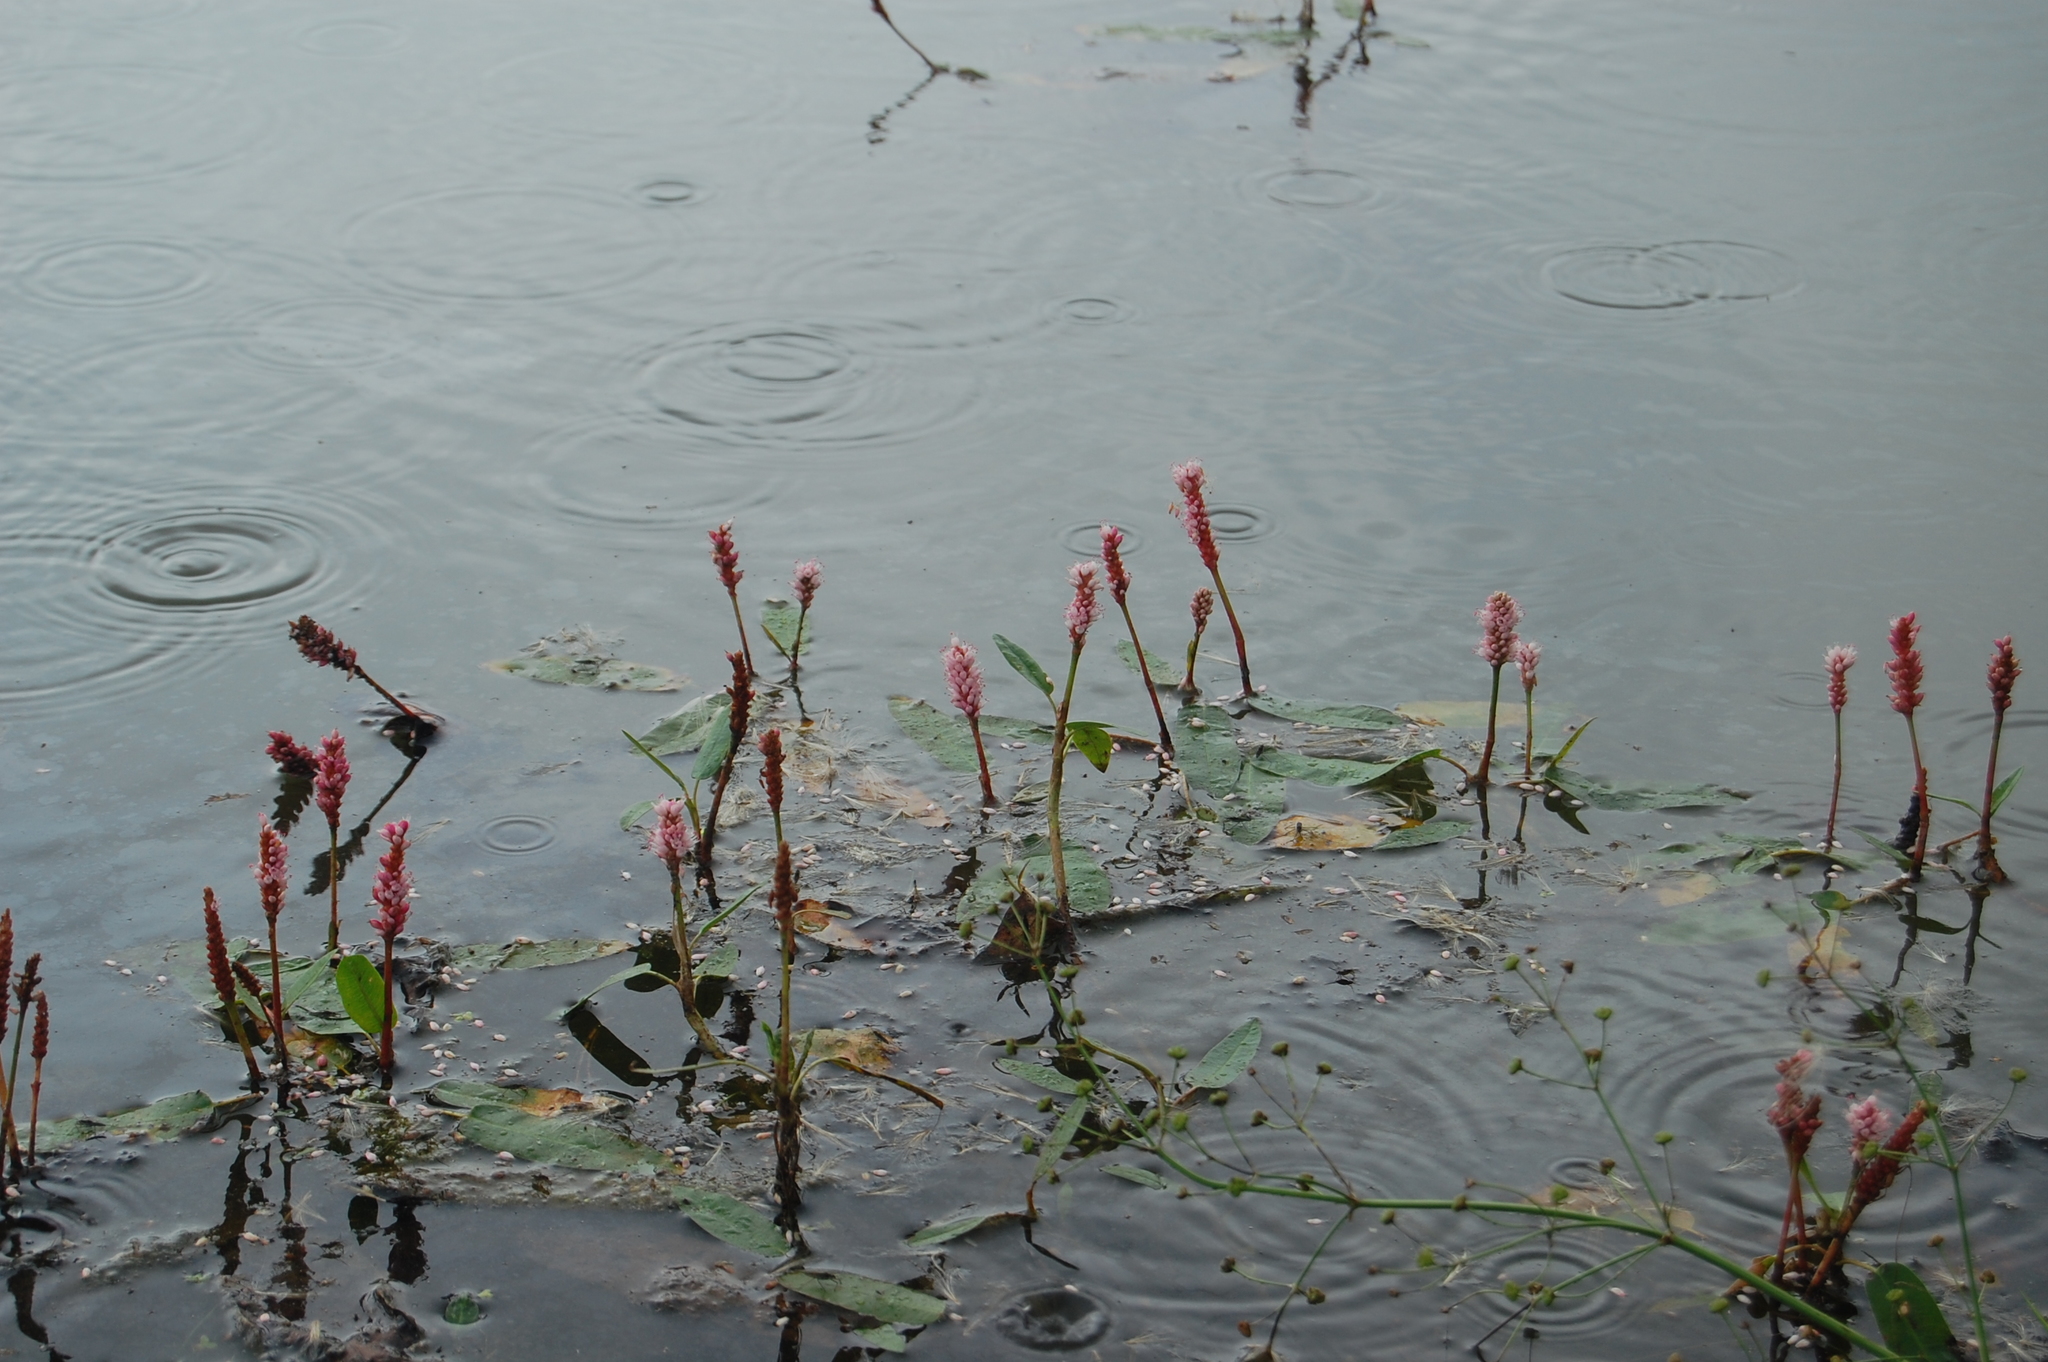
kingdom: Plantae
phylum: Tracheophyta
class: Magnoliopsida
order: Caryophyllales
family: Polygonaceae
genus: Persicaria
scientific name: Persicaria amphibia
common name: Amphibious bistort
